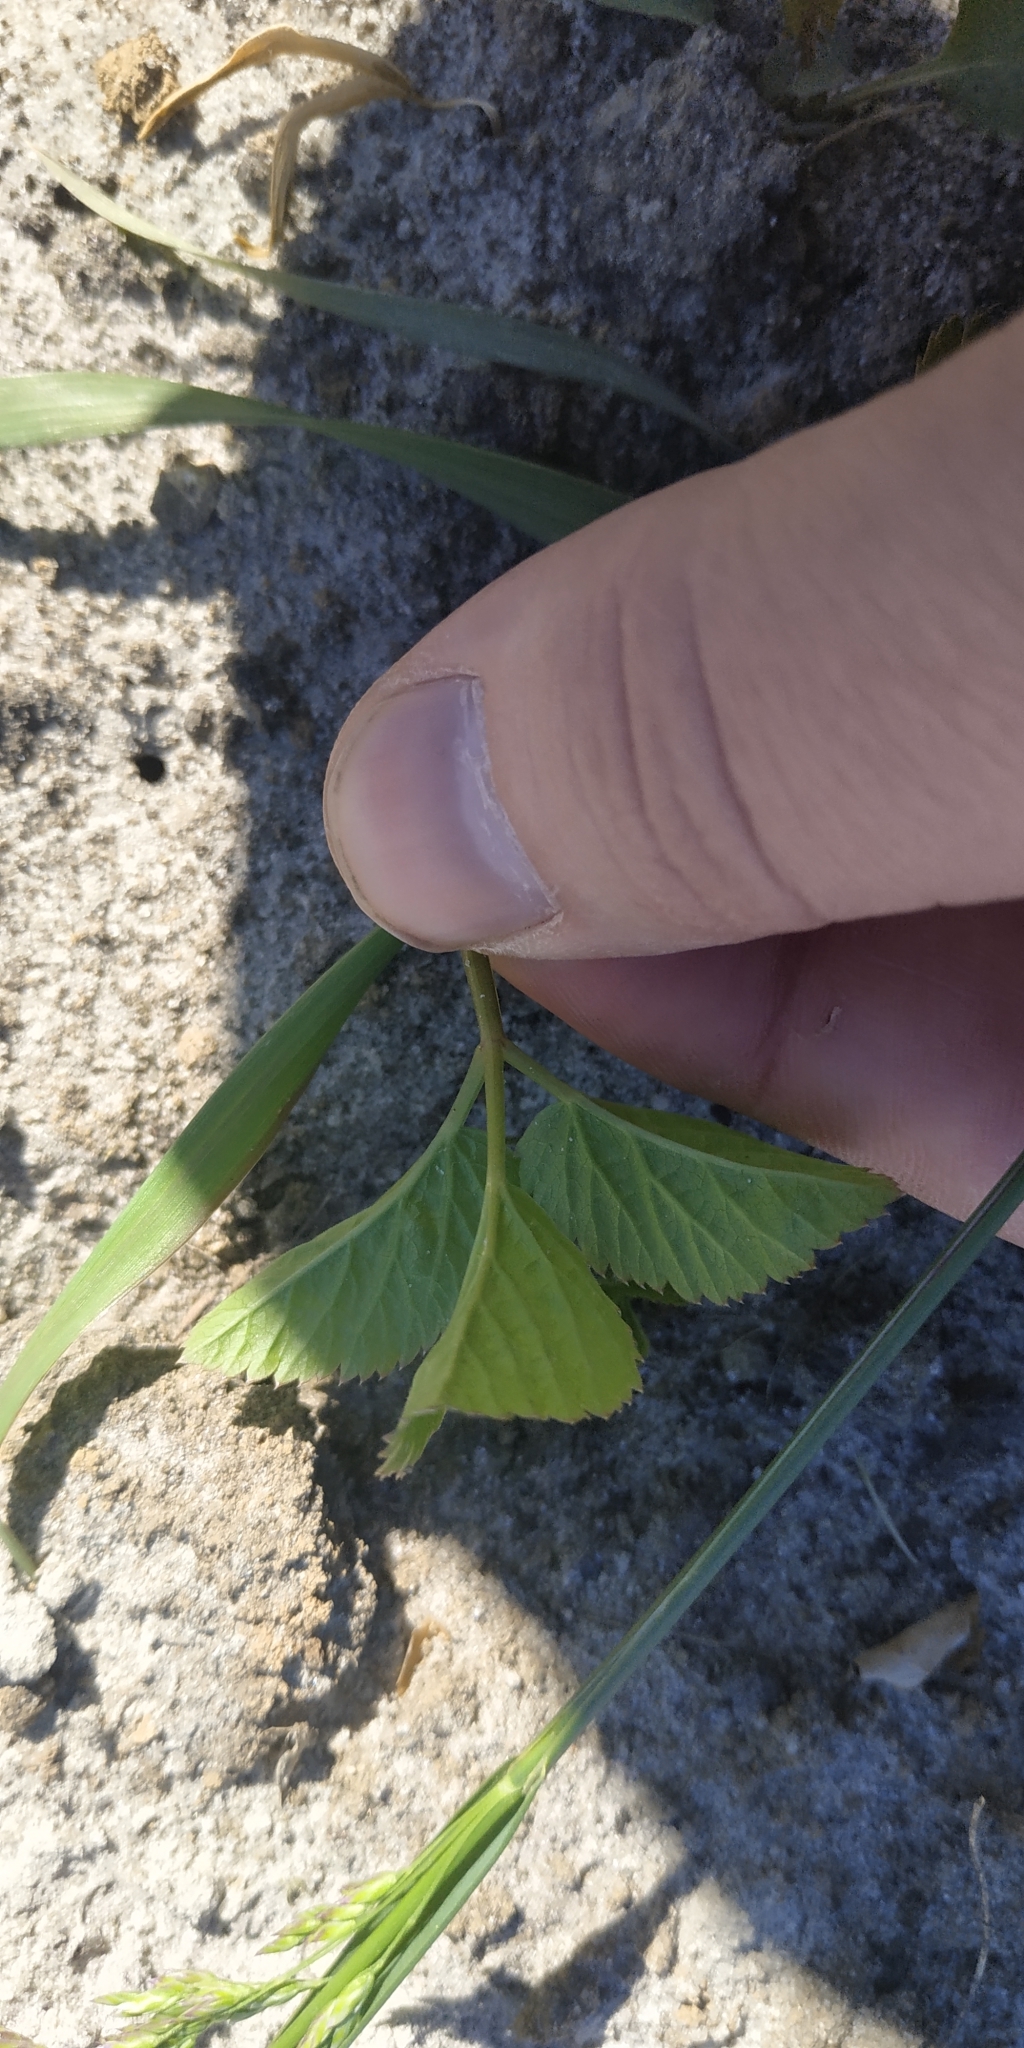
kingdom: Plantae
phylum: Tracheophyta
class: Magnoliopsida
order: Apiales
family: Apiaceae
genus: Aegopodium
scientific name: Aegopodium podagraria
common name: Ground-elder
